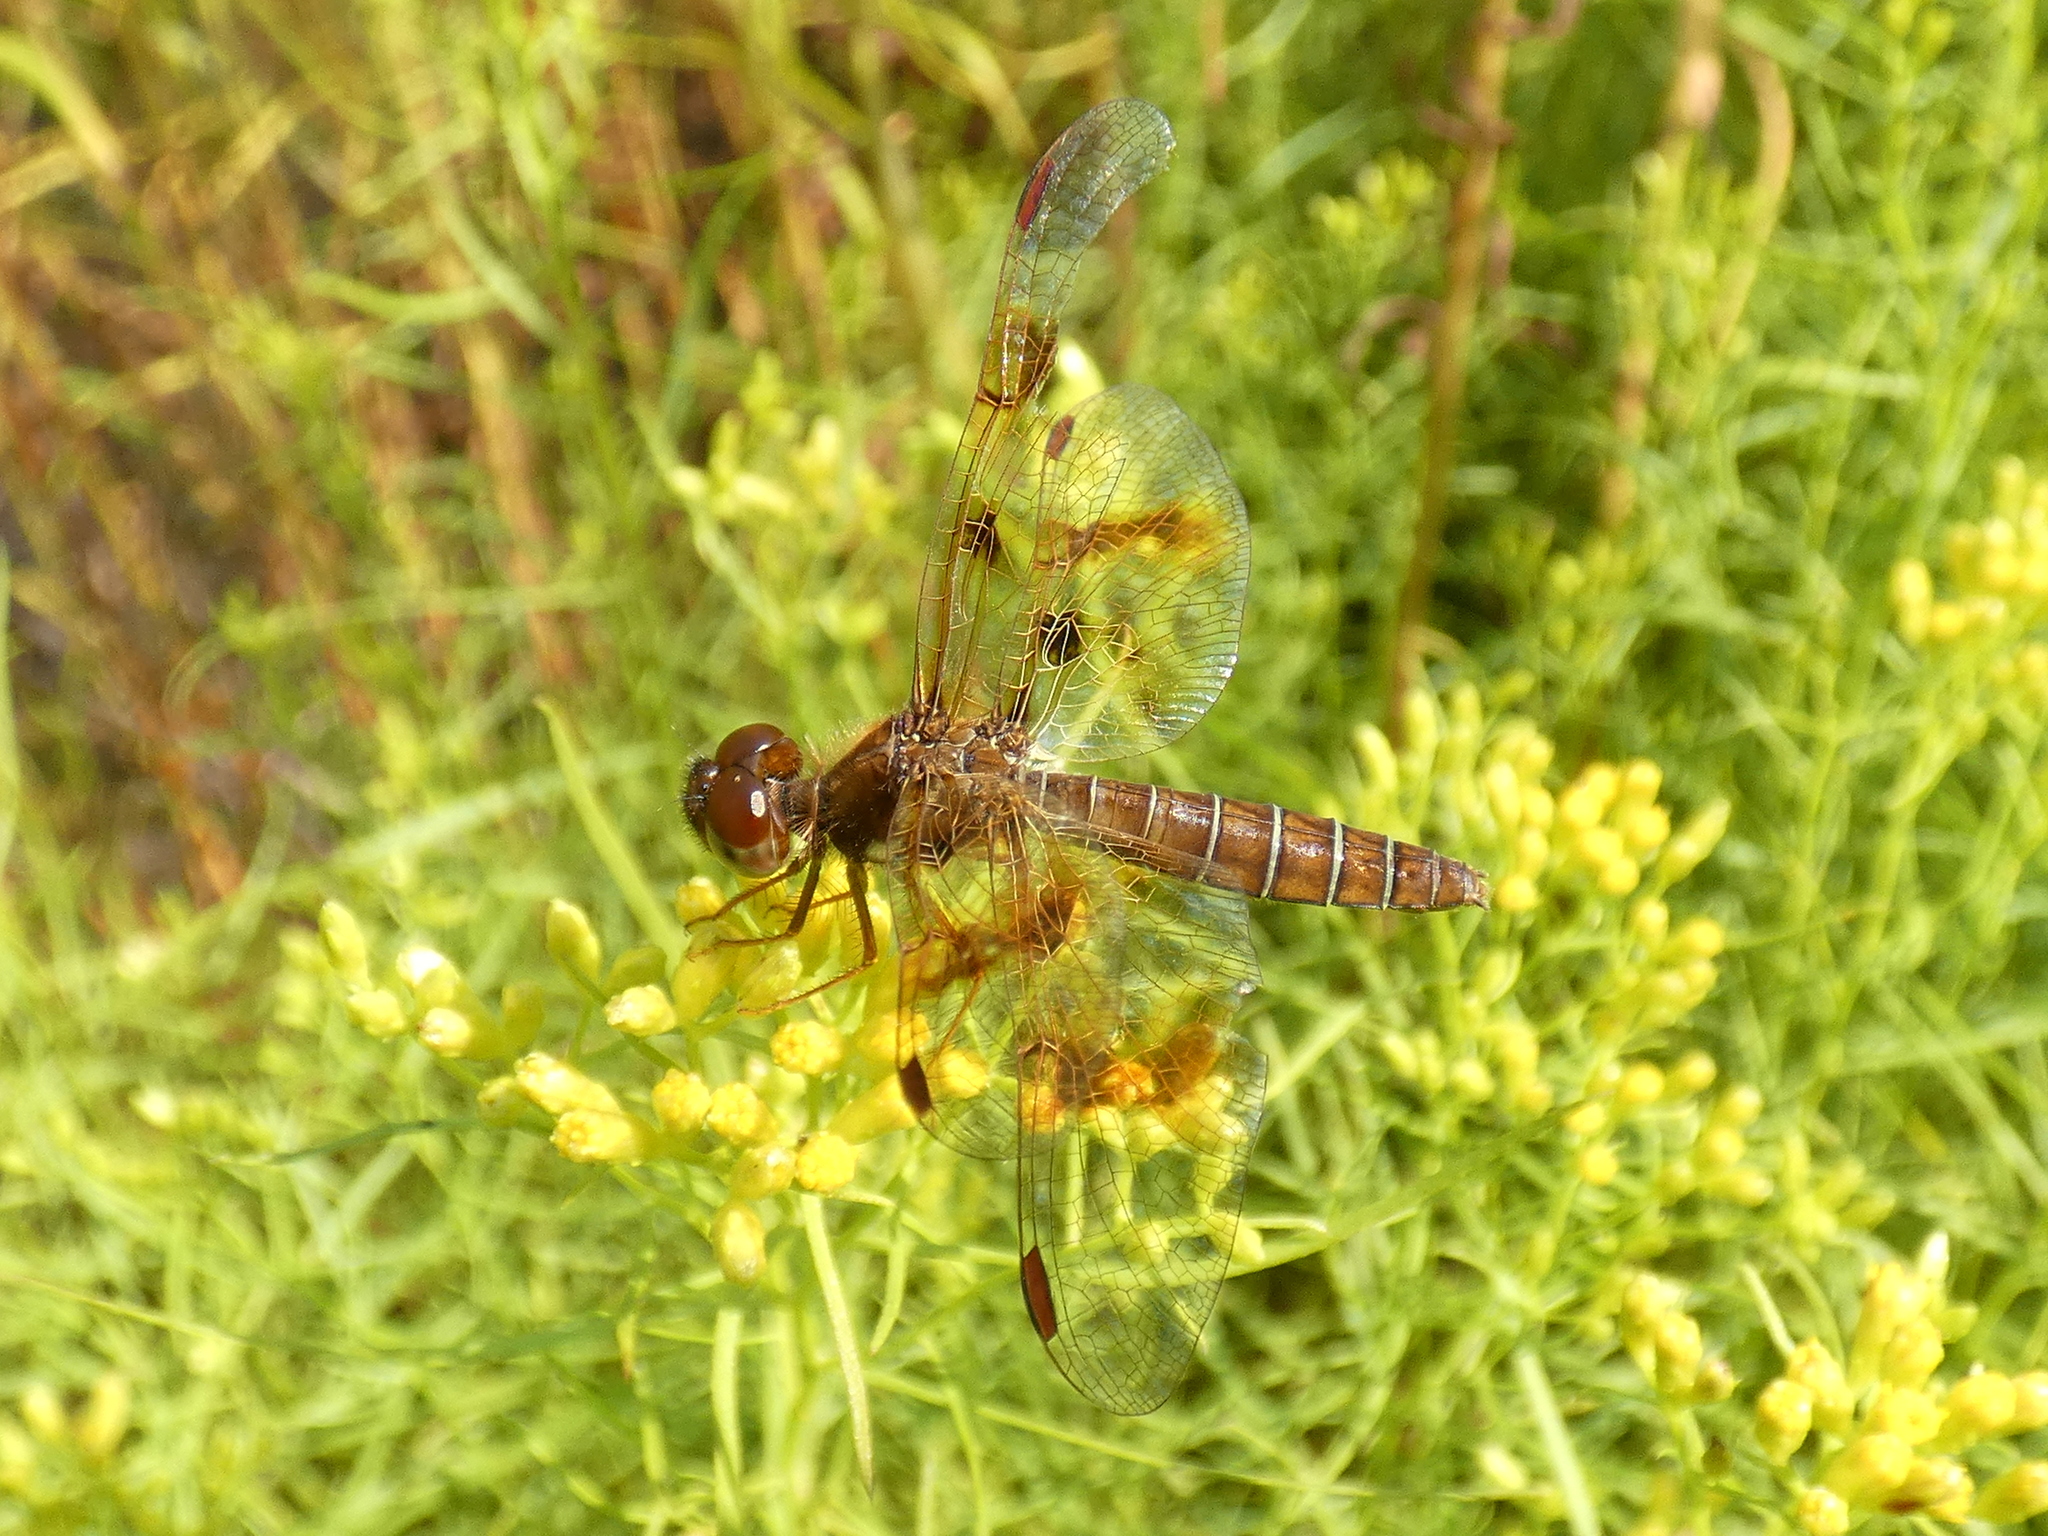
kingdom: Animalia
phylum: Arthropoda
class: Insecta
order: Odonata
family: Libellulidae
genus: Perithemis
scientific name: Perithemis tenera
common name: Eastern amberwing
